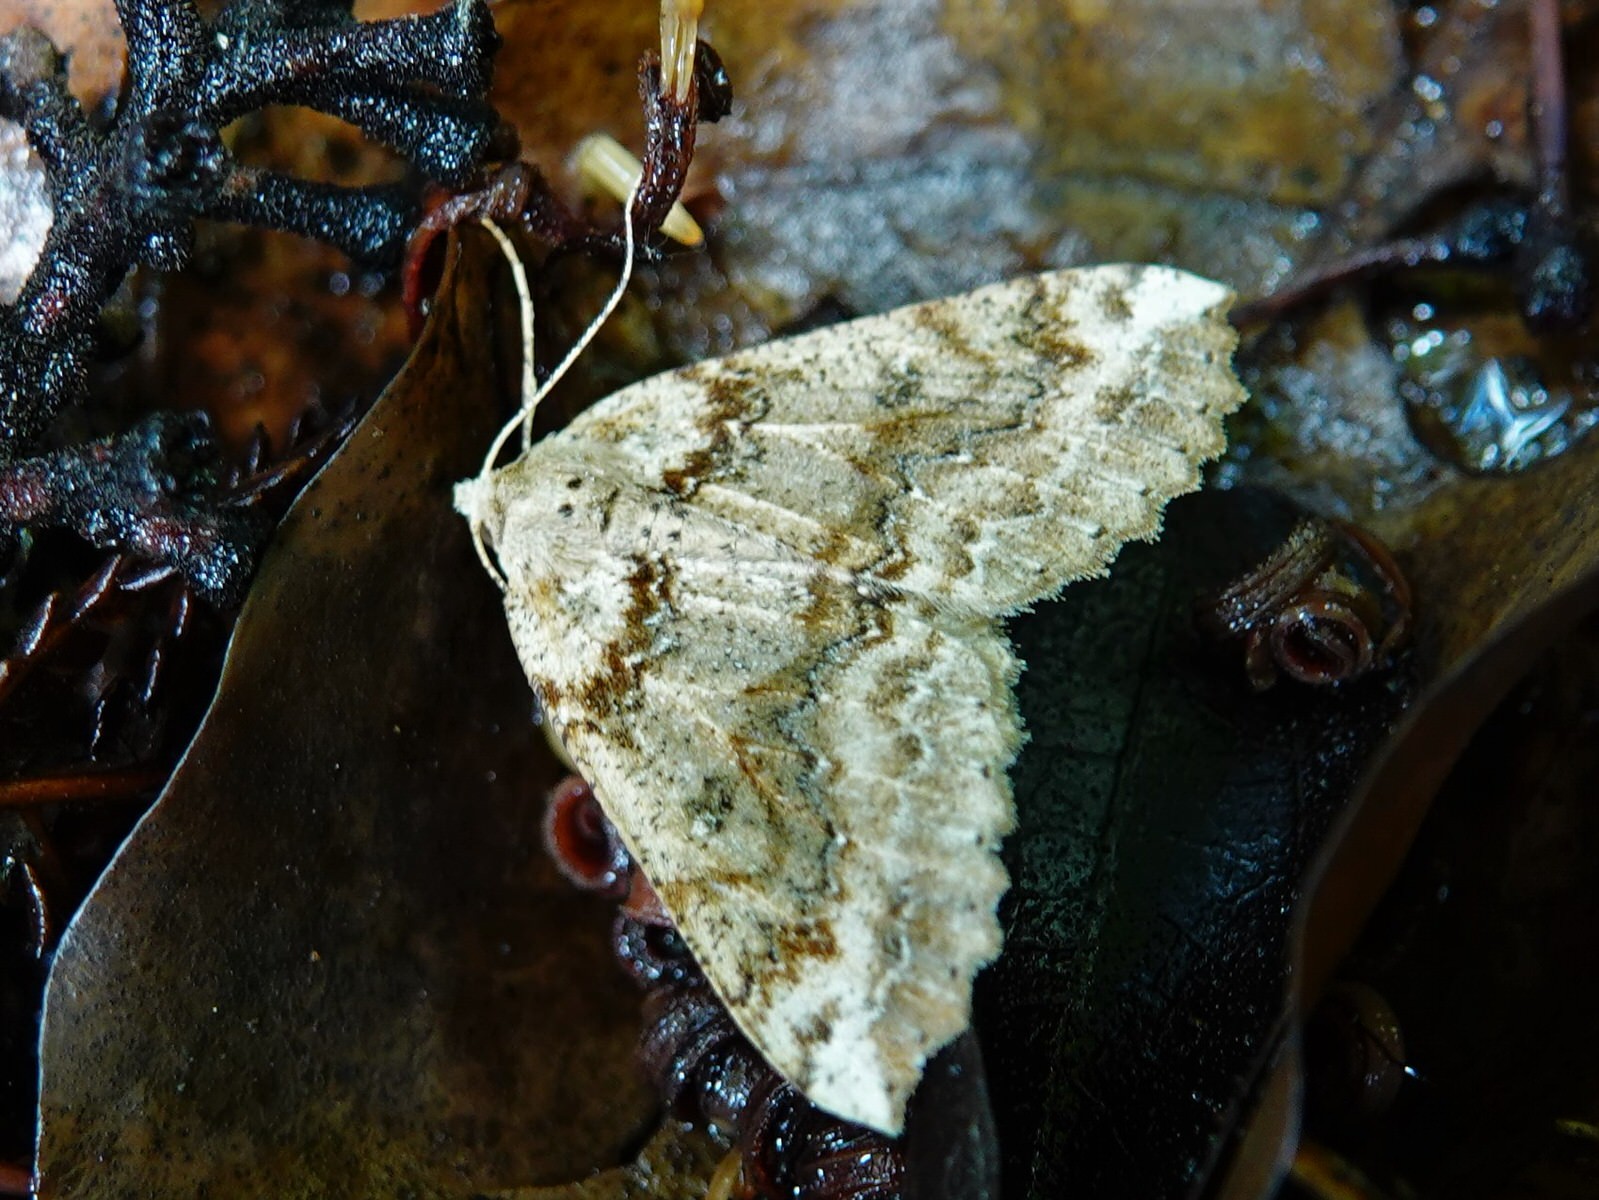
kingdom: Animalia
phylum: Arthropoda
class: Insecta
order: Lepidoptera
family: Geometridae
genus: Cleora
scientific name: Cleora scriptaria
